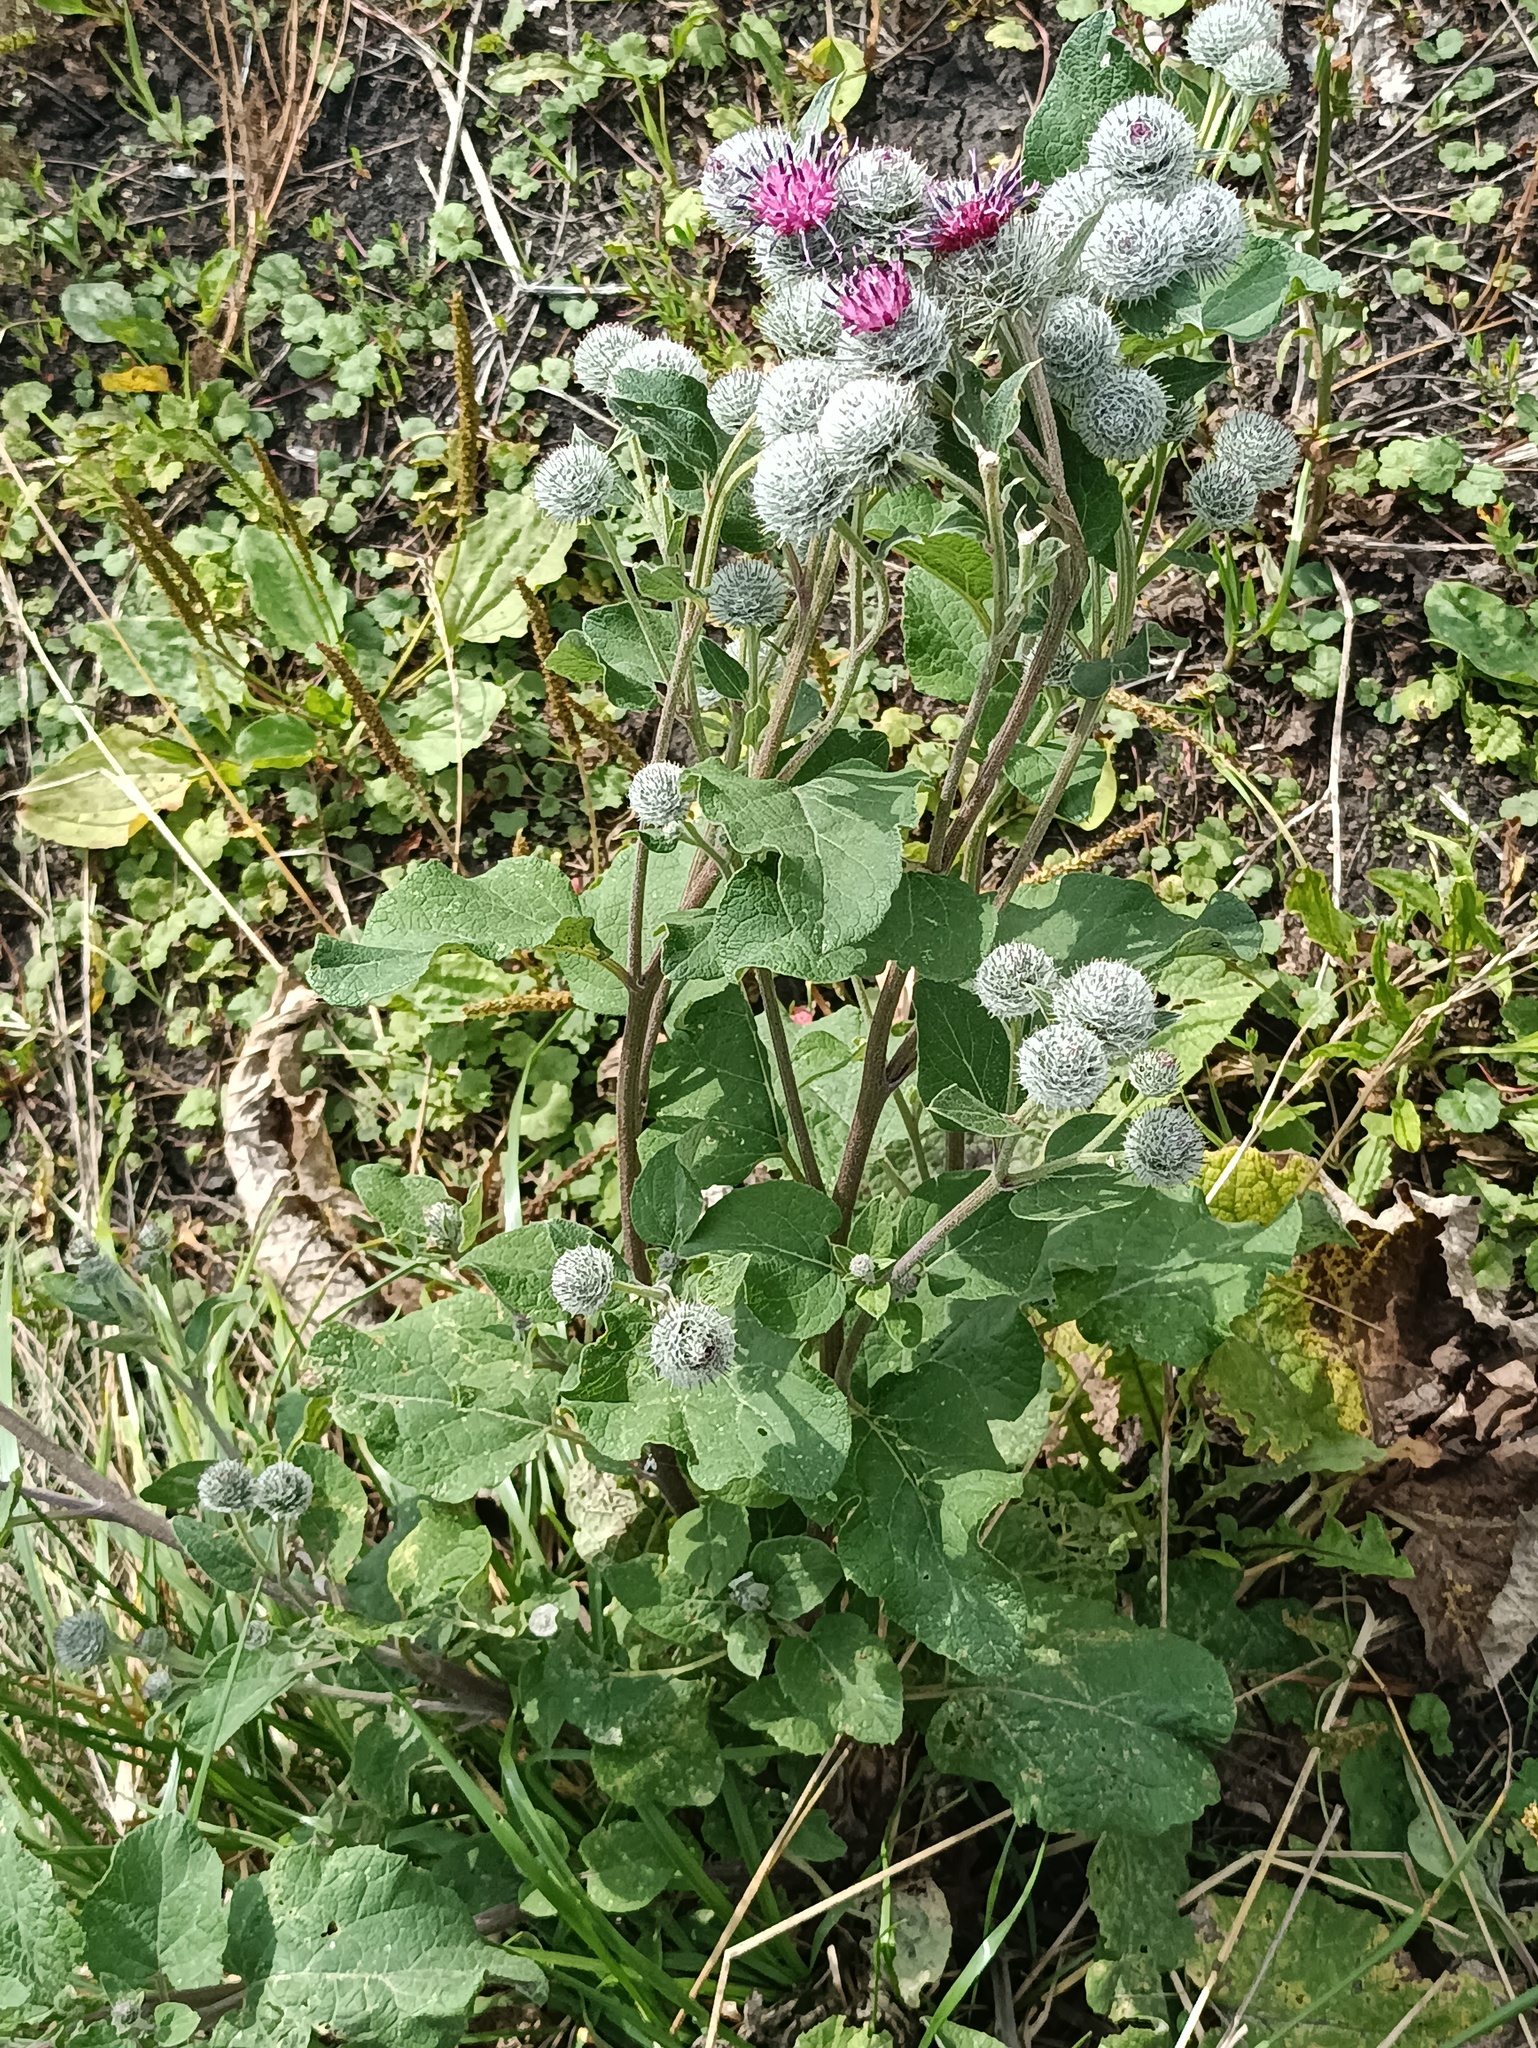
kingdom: Plantae
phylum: Tracheophyta
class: Magnoliopsida
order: Asterales
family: Asteraceae
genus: Arctium
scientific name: Arctium tomentosum
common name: Woolly burdock
